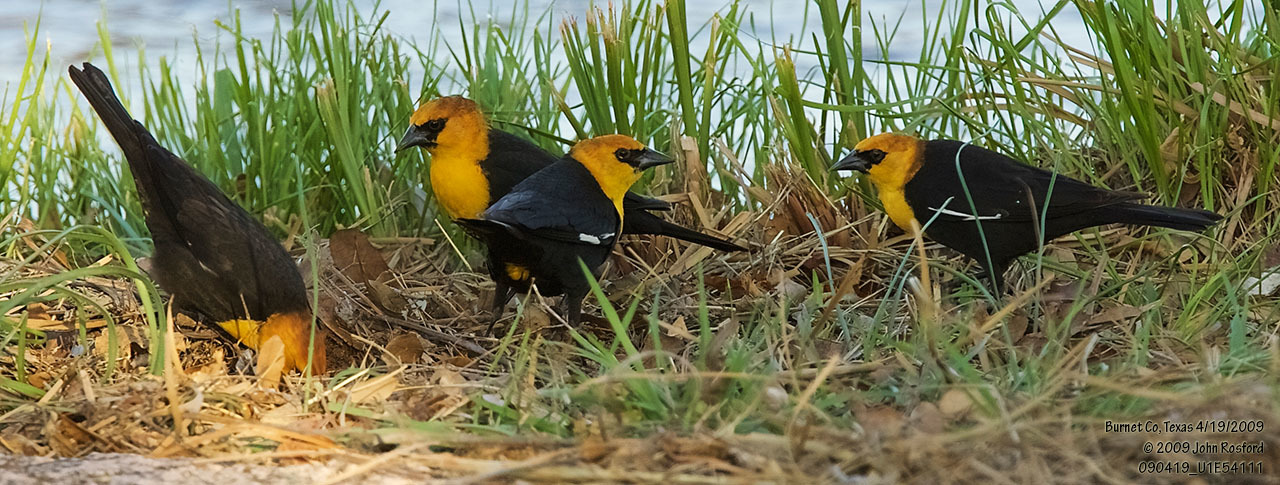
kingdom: Animalia
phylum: Chordata
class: Aves
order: Passeriformes
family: Icteridae
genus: Xanthocephalus
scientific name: Xanthocephalus xanthocephalus
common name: Yellow-headed blackbird
